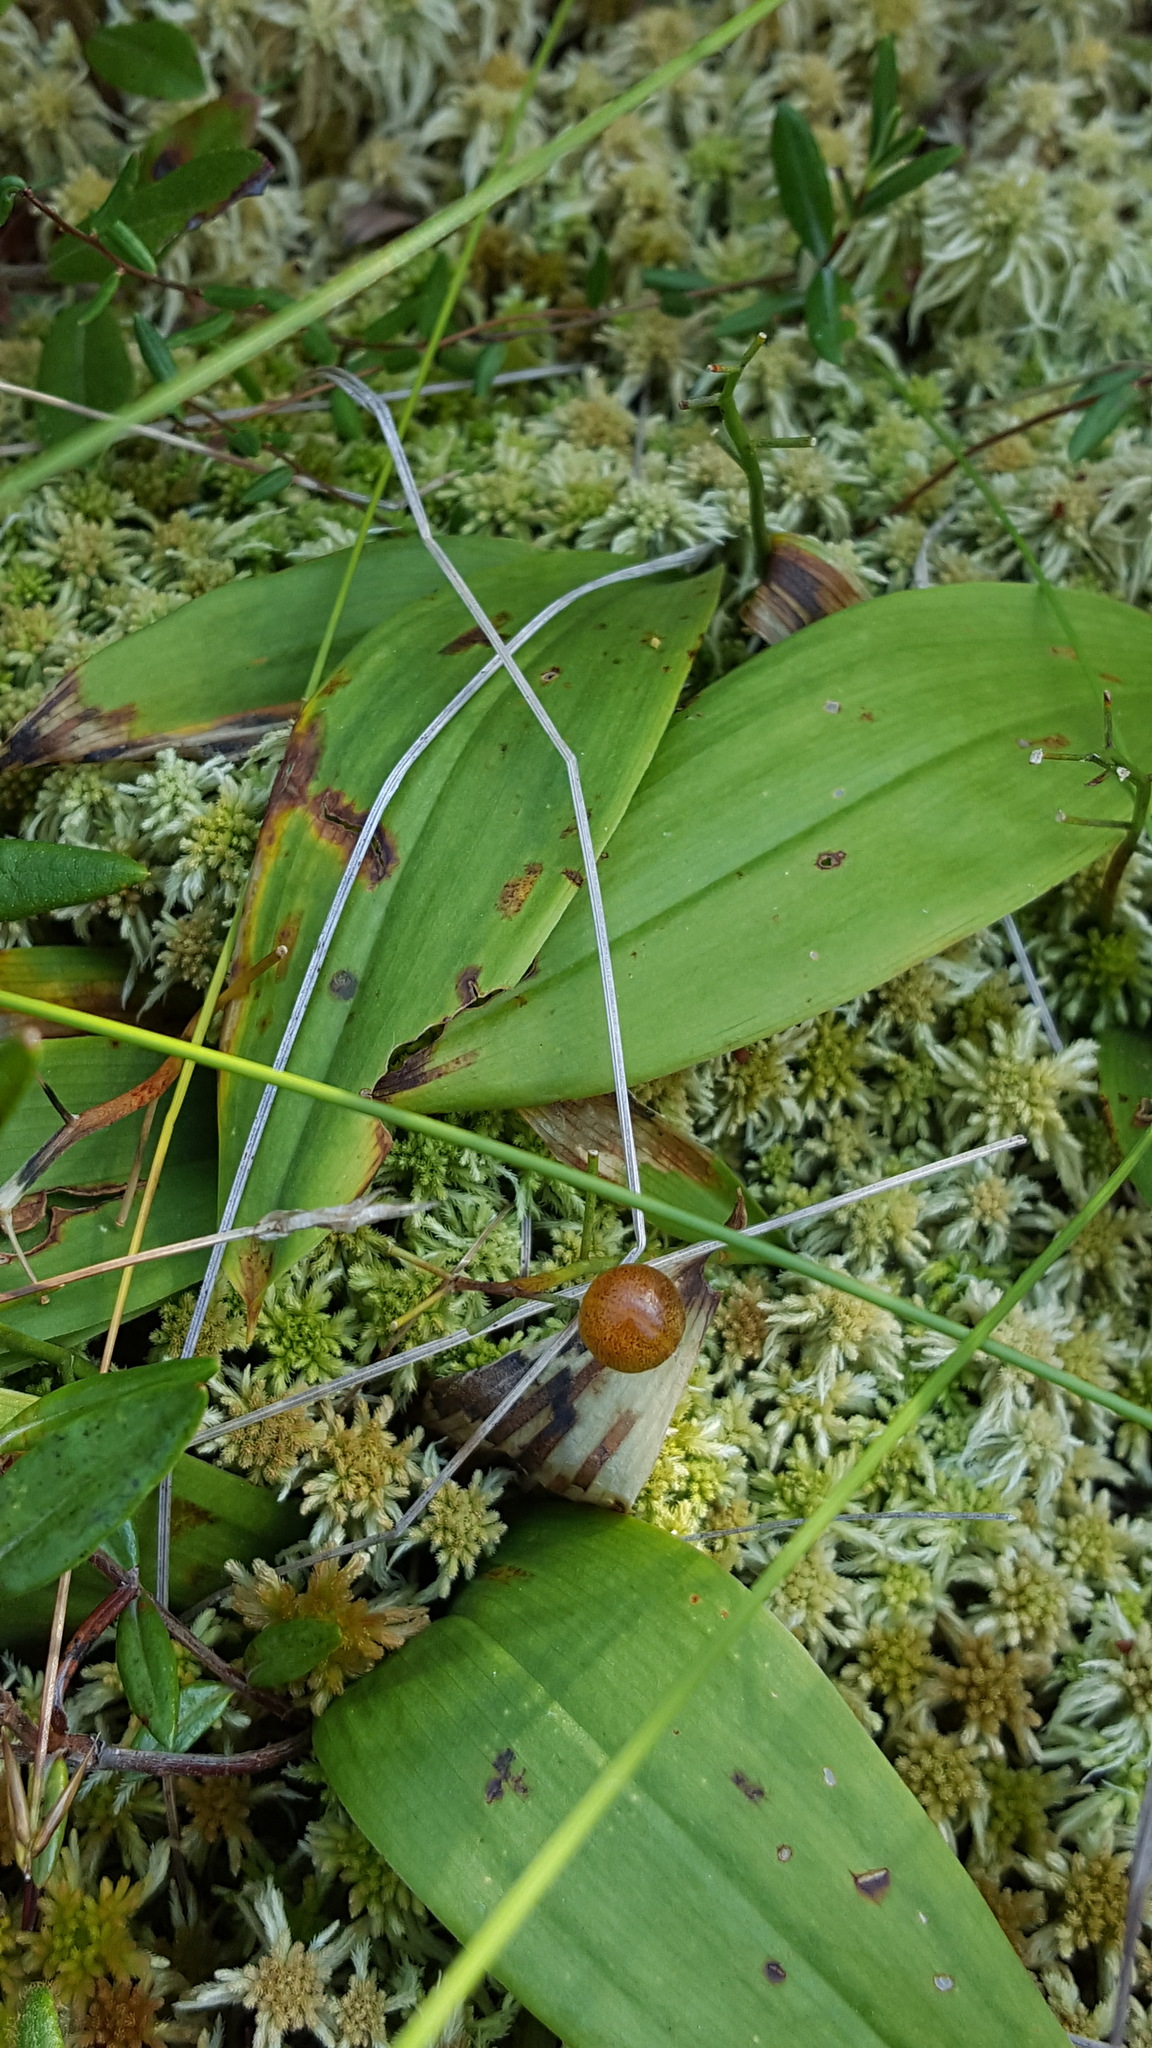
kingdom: Plantae
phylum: Tracheophyta
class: Liliopsida
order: Asparagales
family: Asparagaceae
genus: Maianthemum
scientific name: Maianthemum trifolium
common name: Swamp false solomon's seal
